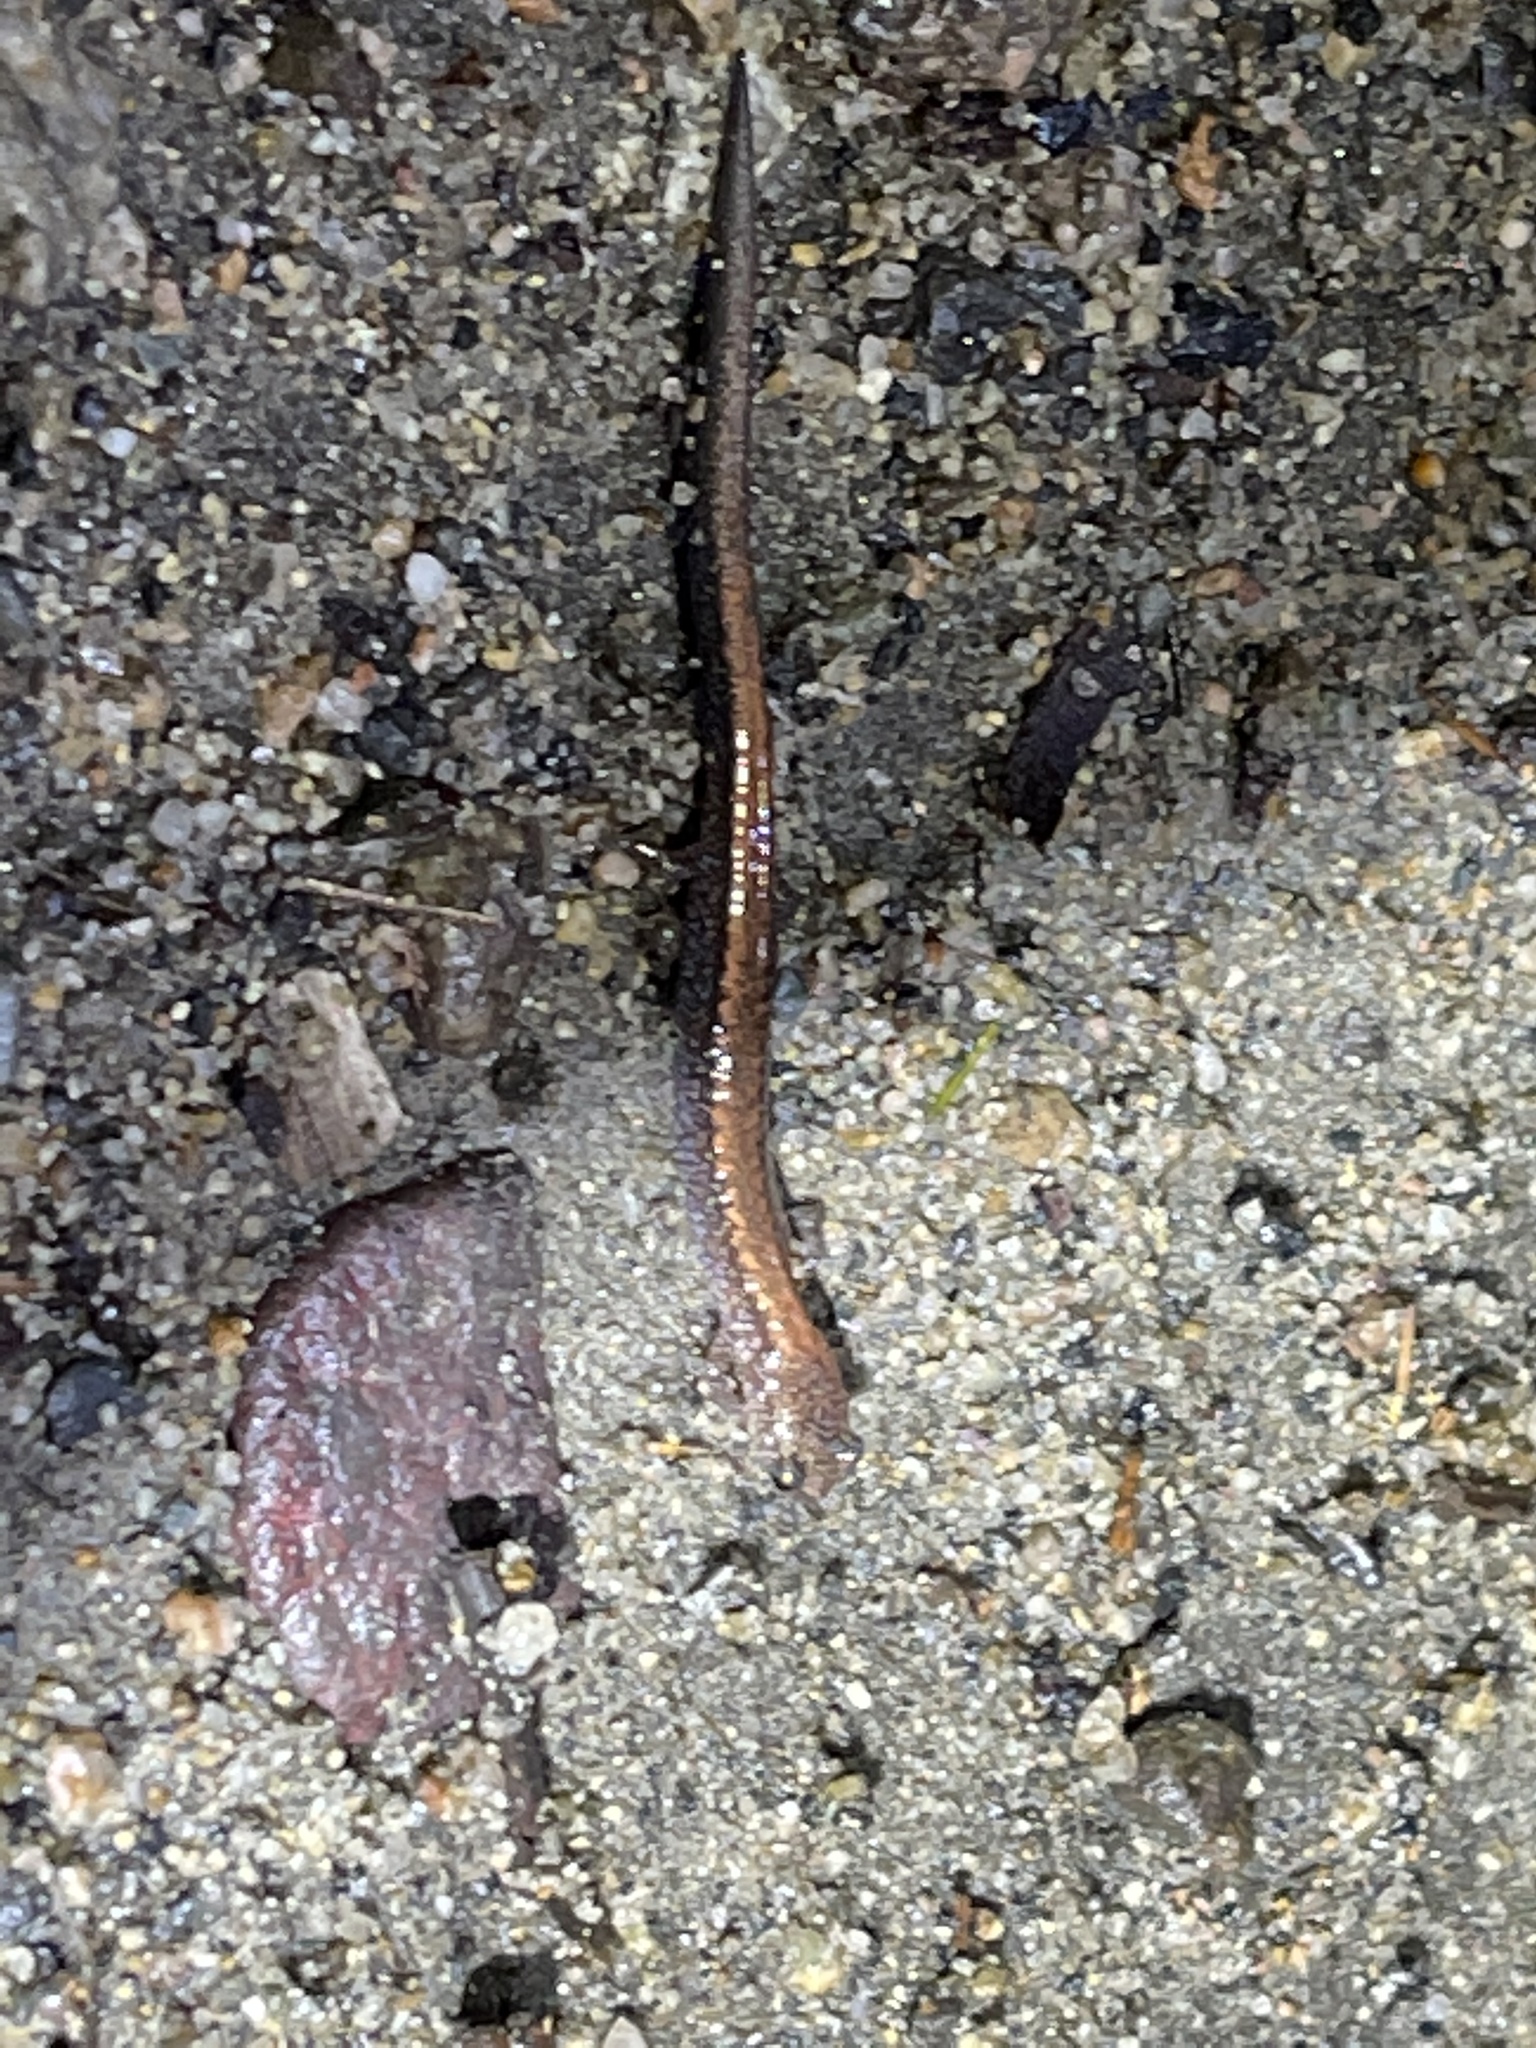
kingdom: Animalia
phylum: Chordata
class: Amphibia
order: Caudata
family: Plethodontidae
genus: Plethodon
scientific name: Plethodon cinereus
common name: Redback salamander
